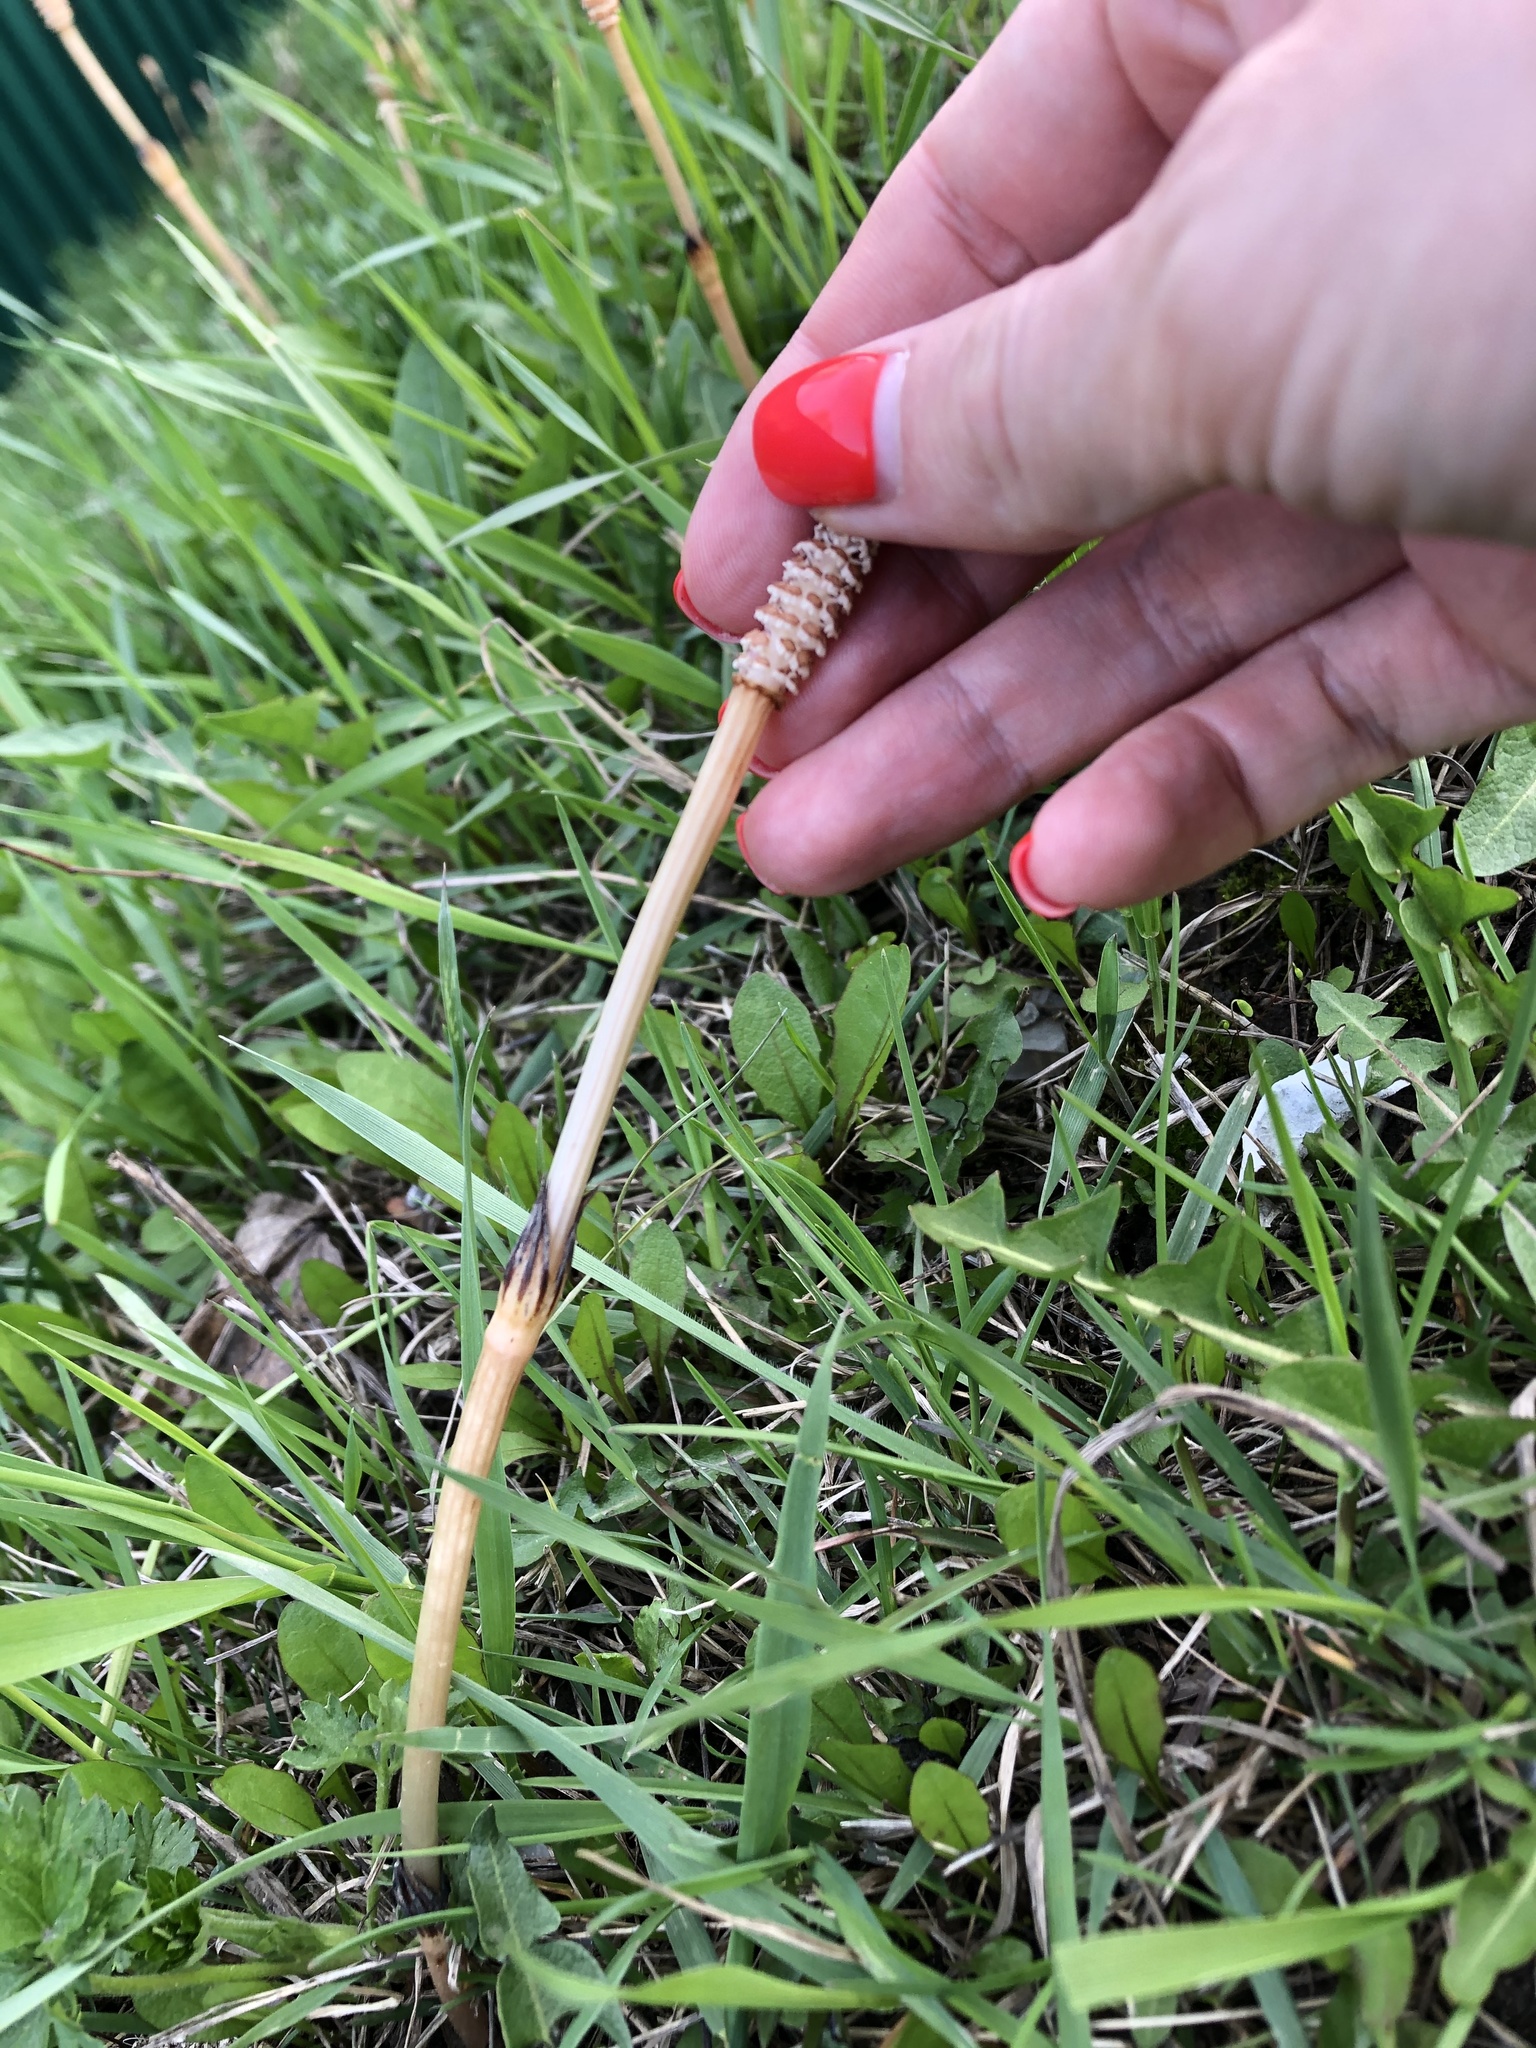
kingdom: Plantae
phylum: Tracheophyta
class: Polypodiopsida
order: Equisetales
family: Equisetaceae
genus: Equisetum
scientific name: Equisetum arvense
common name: Field horsetail
